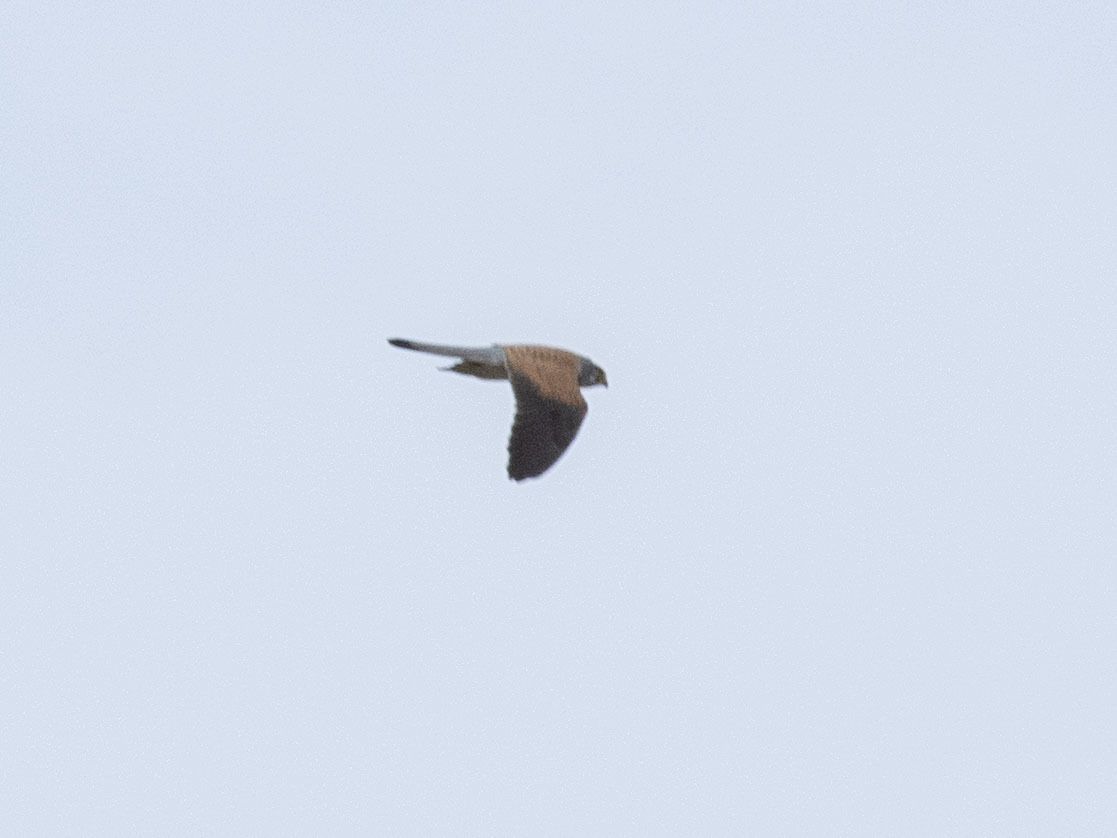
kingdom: Animalia
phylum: Chordata
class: Aves
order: Falconiformes
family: Falconidae
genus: Falco
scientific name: Falco tinnunculus
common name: Common kestrel
